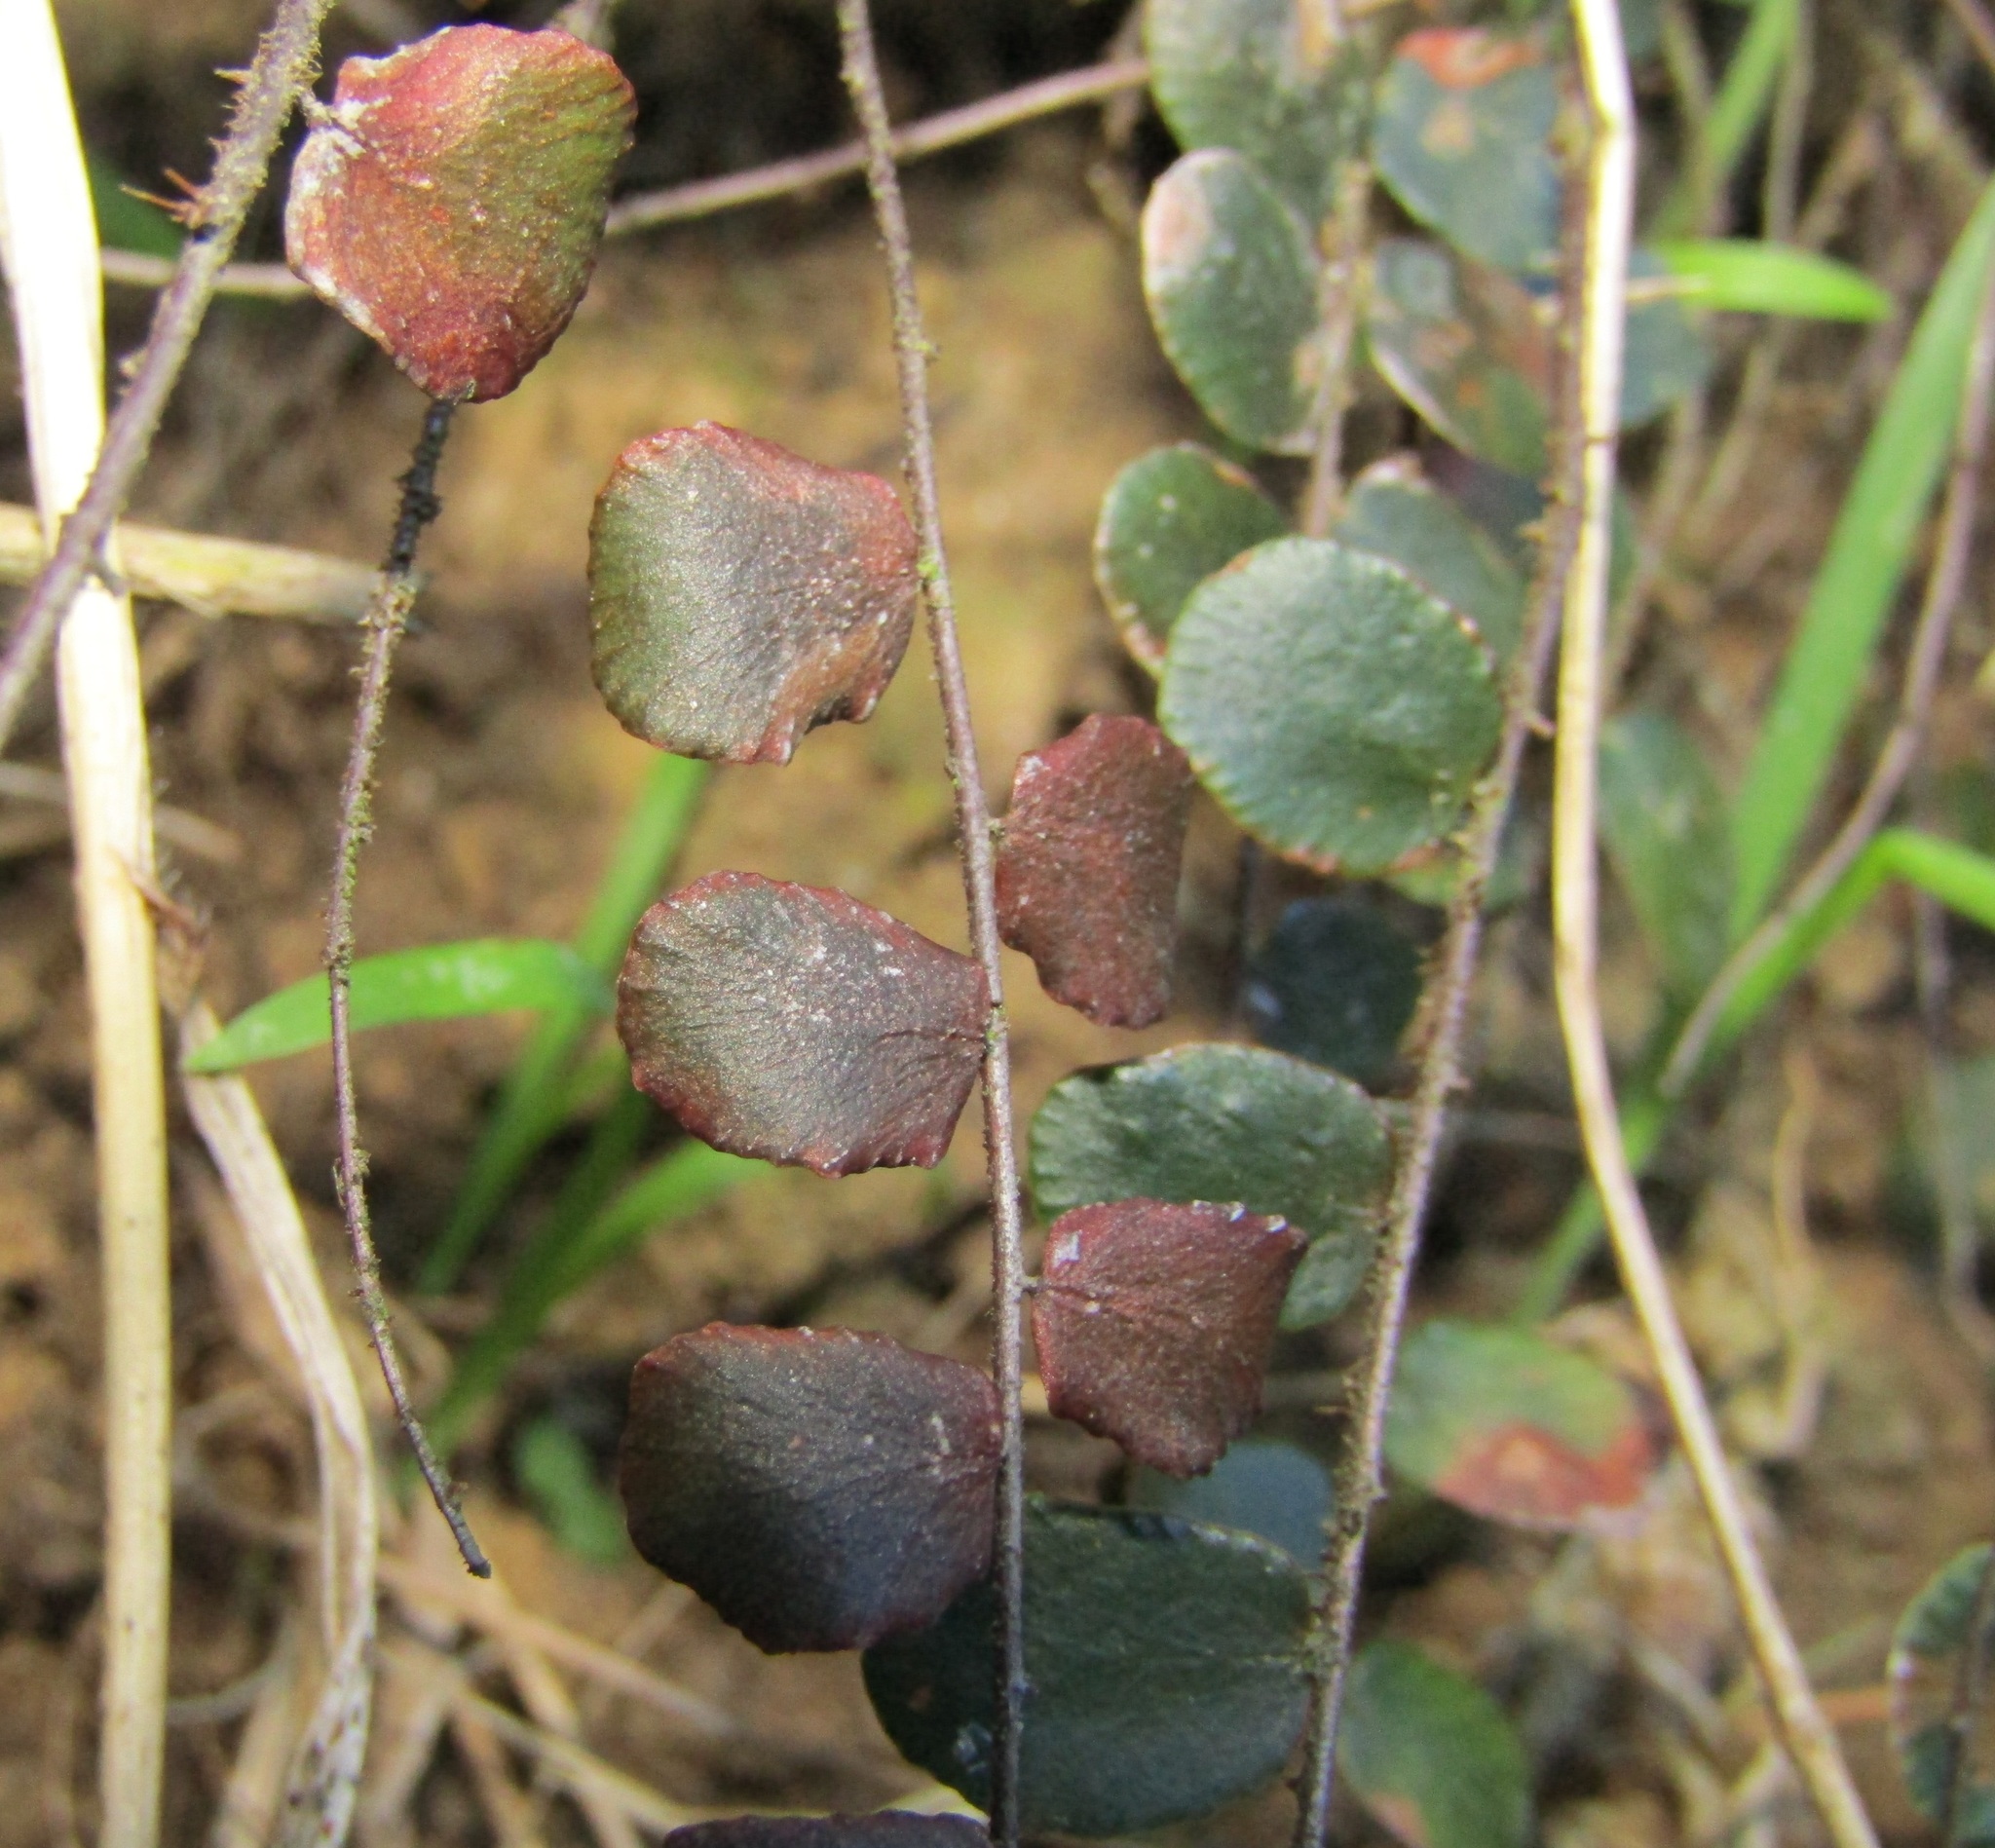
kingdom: Plantae
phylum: Tracheophyta
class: Polypodiopsida
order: Polypodiales
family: Pteridaceae
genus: Pellaea
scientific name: Pellaea rotundifolia
